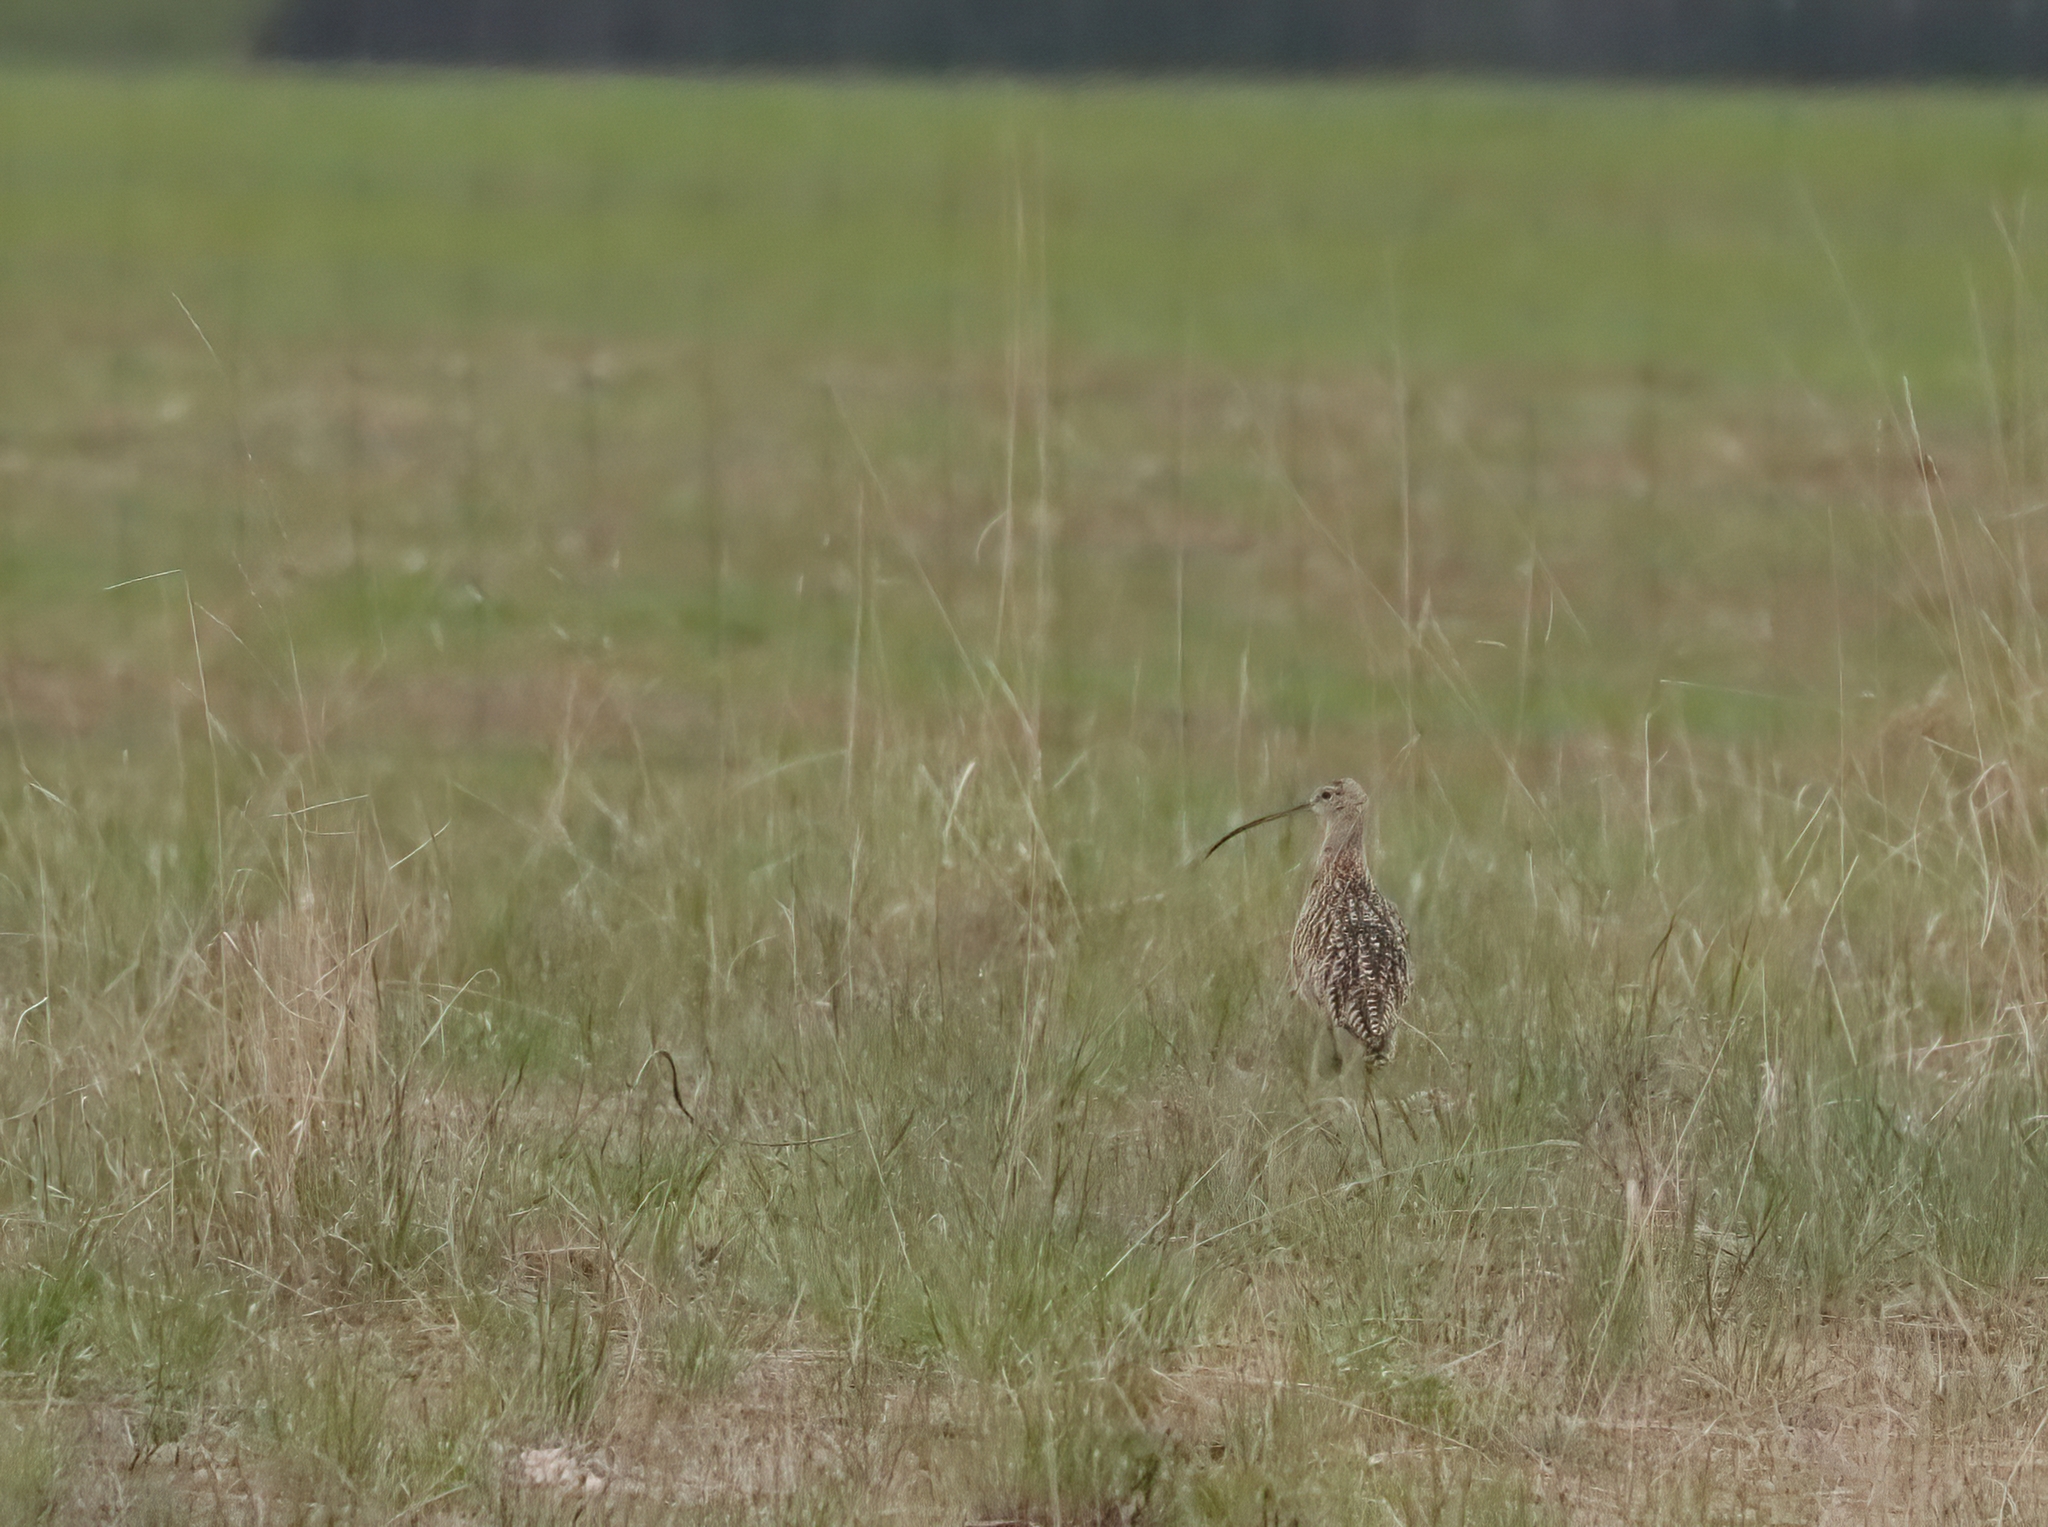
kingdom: Animalia
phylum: Chordata
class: Aves
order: Charadriiformes
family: Scolopacidae
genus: Numenius
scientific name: Numenius americanus
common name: Long-billed curlew
